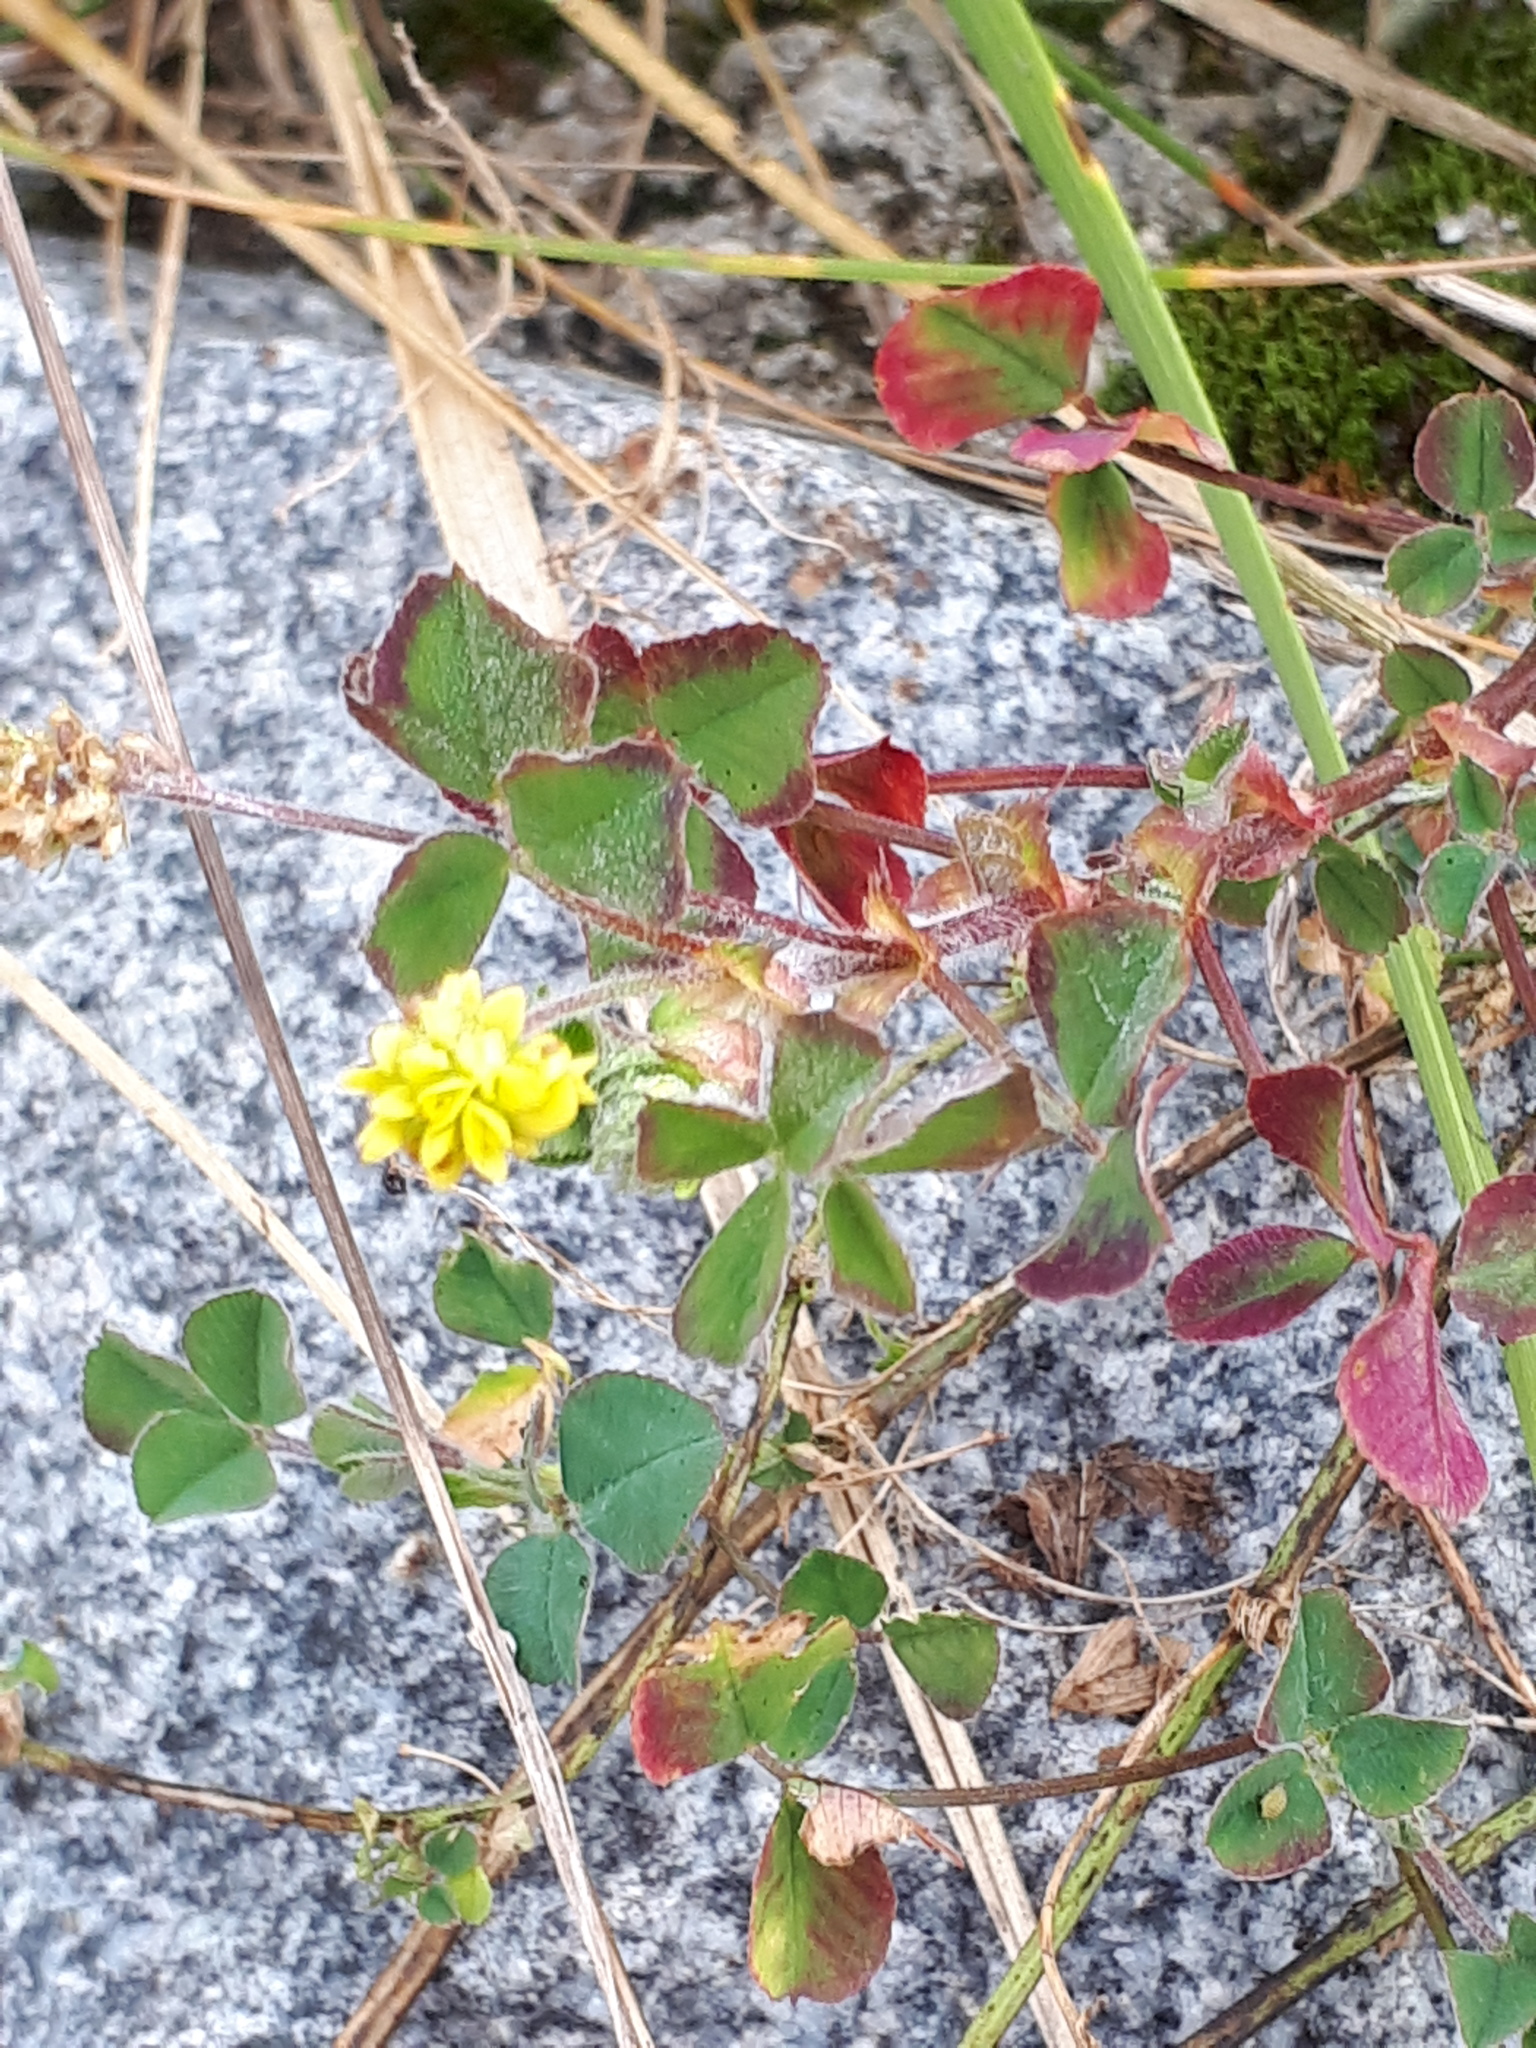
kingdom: Plantae
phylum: Tracheophyta
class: Magnoliopsida
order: Fabales
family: Fabaceae
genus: Medicago
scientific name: Medicago lupulina
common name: Black medick
